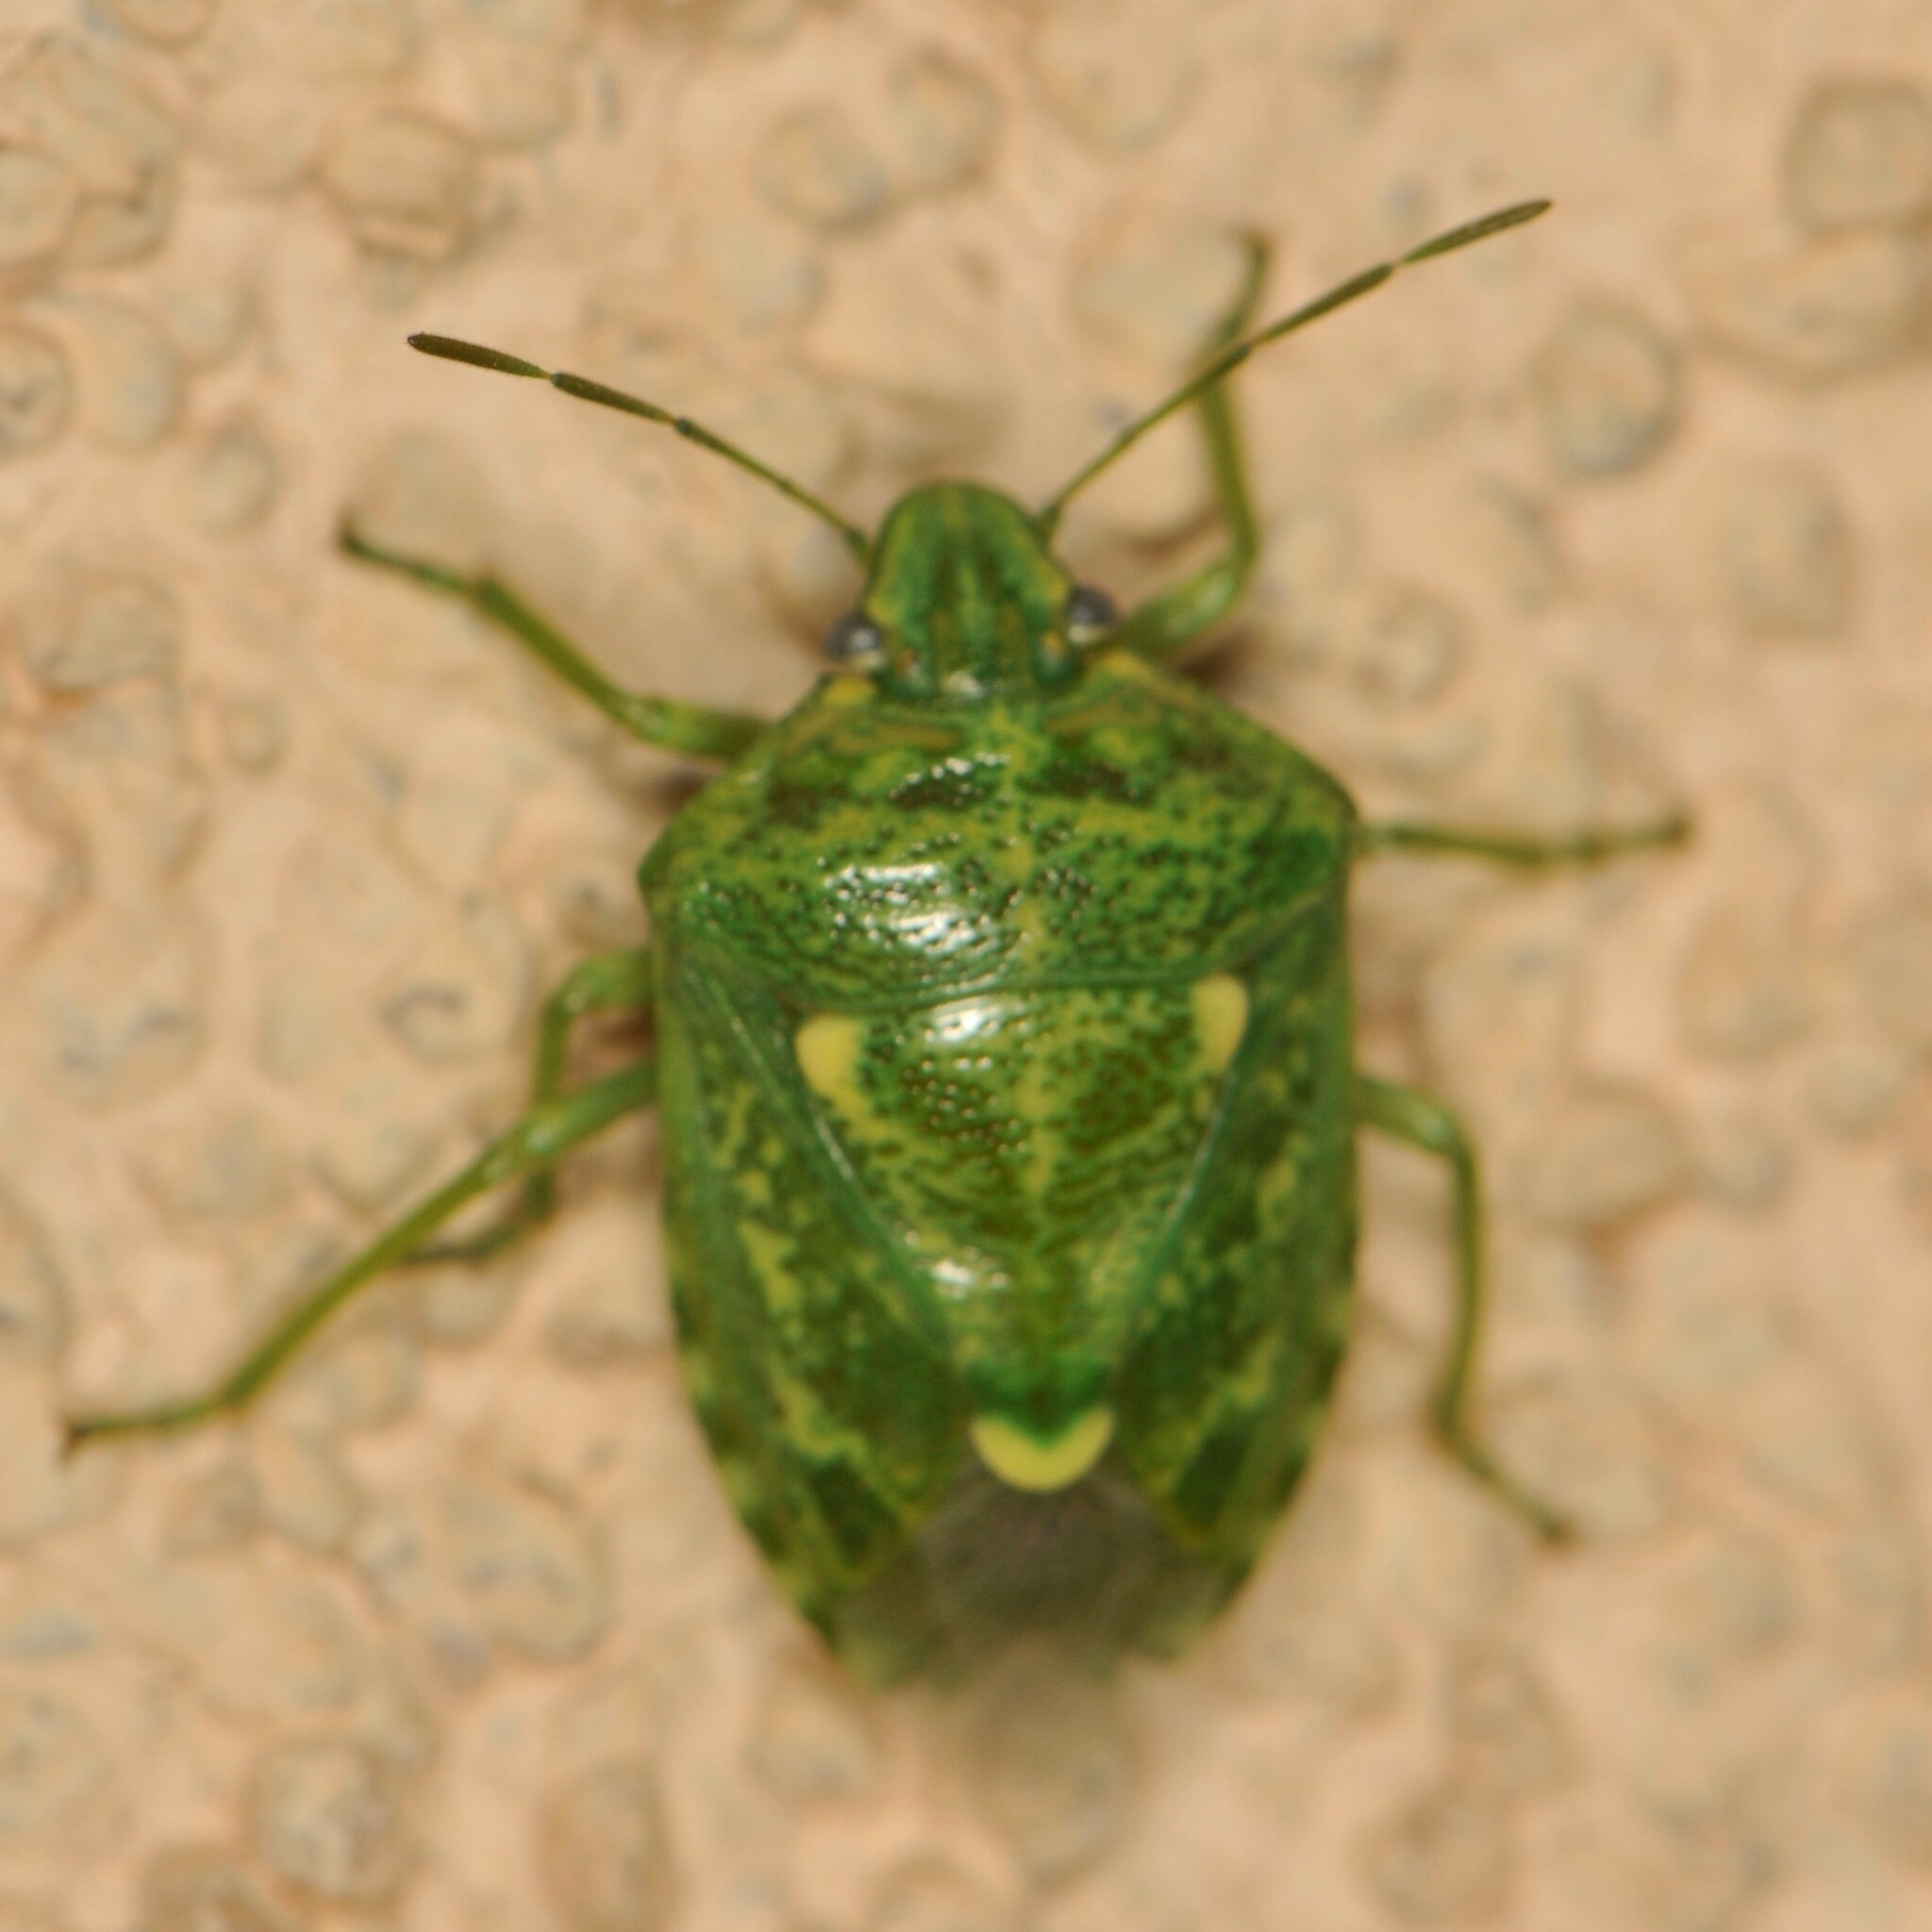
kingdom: Animalia
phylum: Arthropoda
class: Insecta
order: Hemiptera
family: Pentatomidae
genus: Banasa
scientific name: Banasa euchlora
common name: Cedar berry bug
